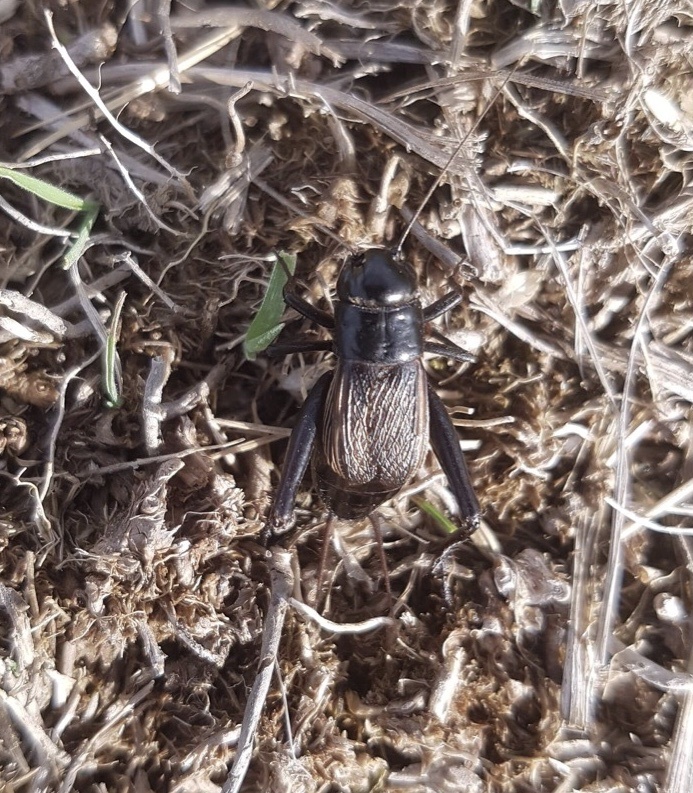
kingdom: Animalia
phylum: Arthropoda
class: Insecta
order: Orthoptera
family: Gryllidae
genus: Gryllus
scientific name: Gryllus pennsylvanicus
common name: Fall field cricket
